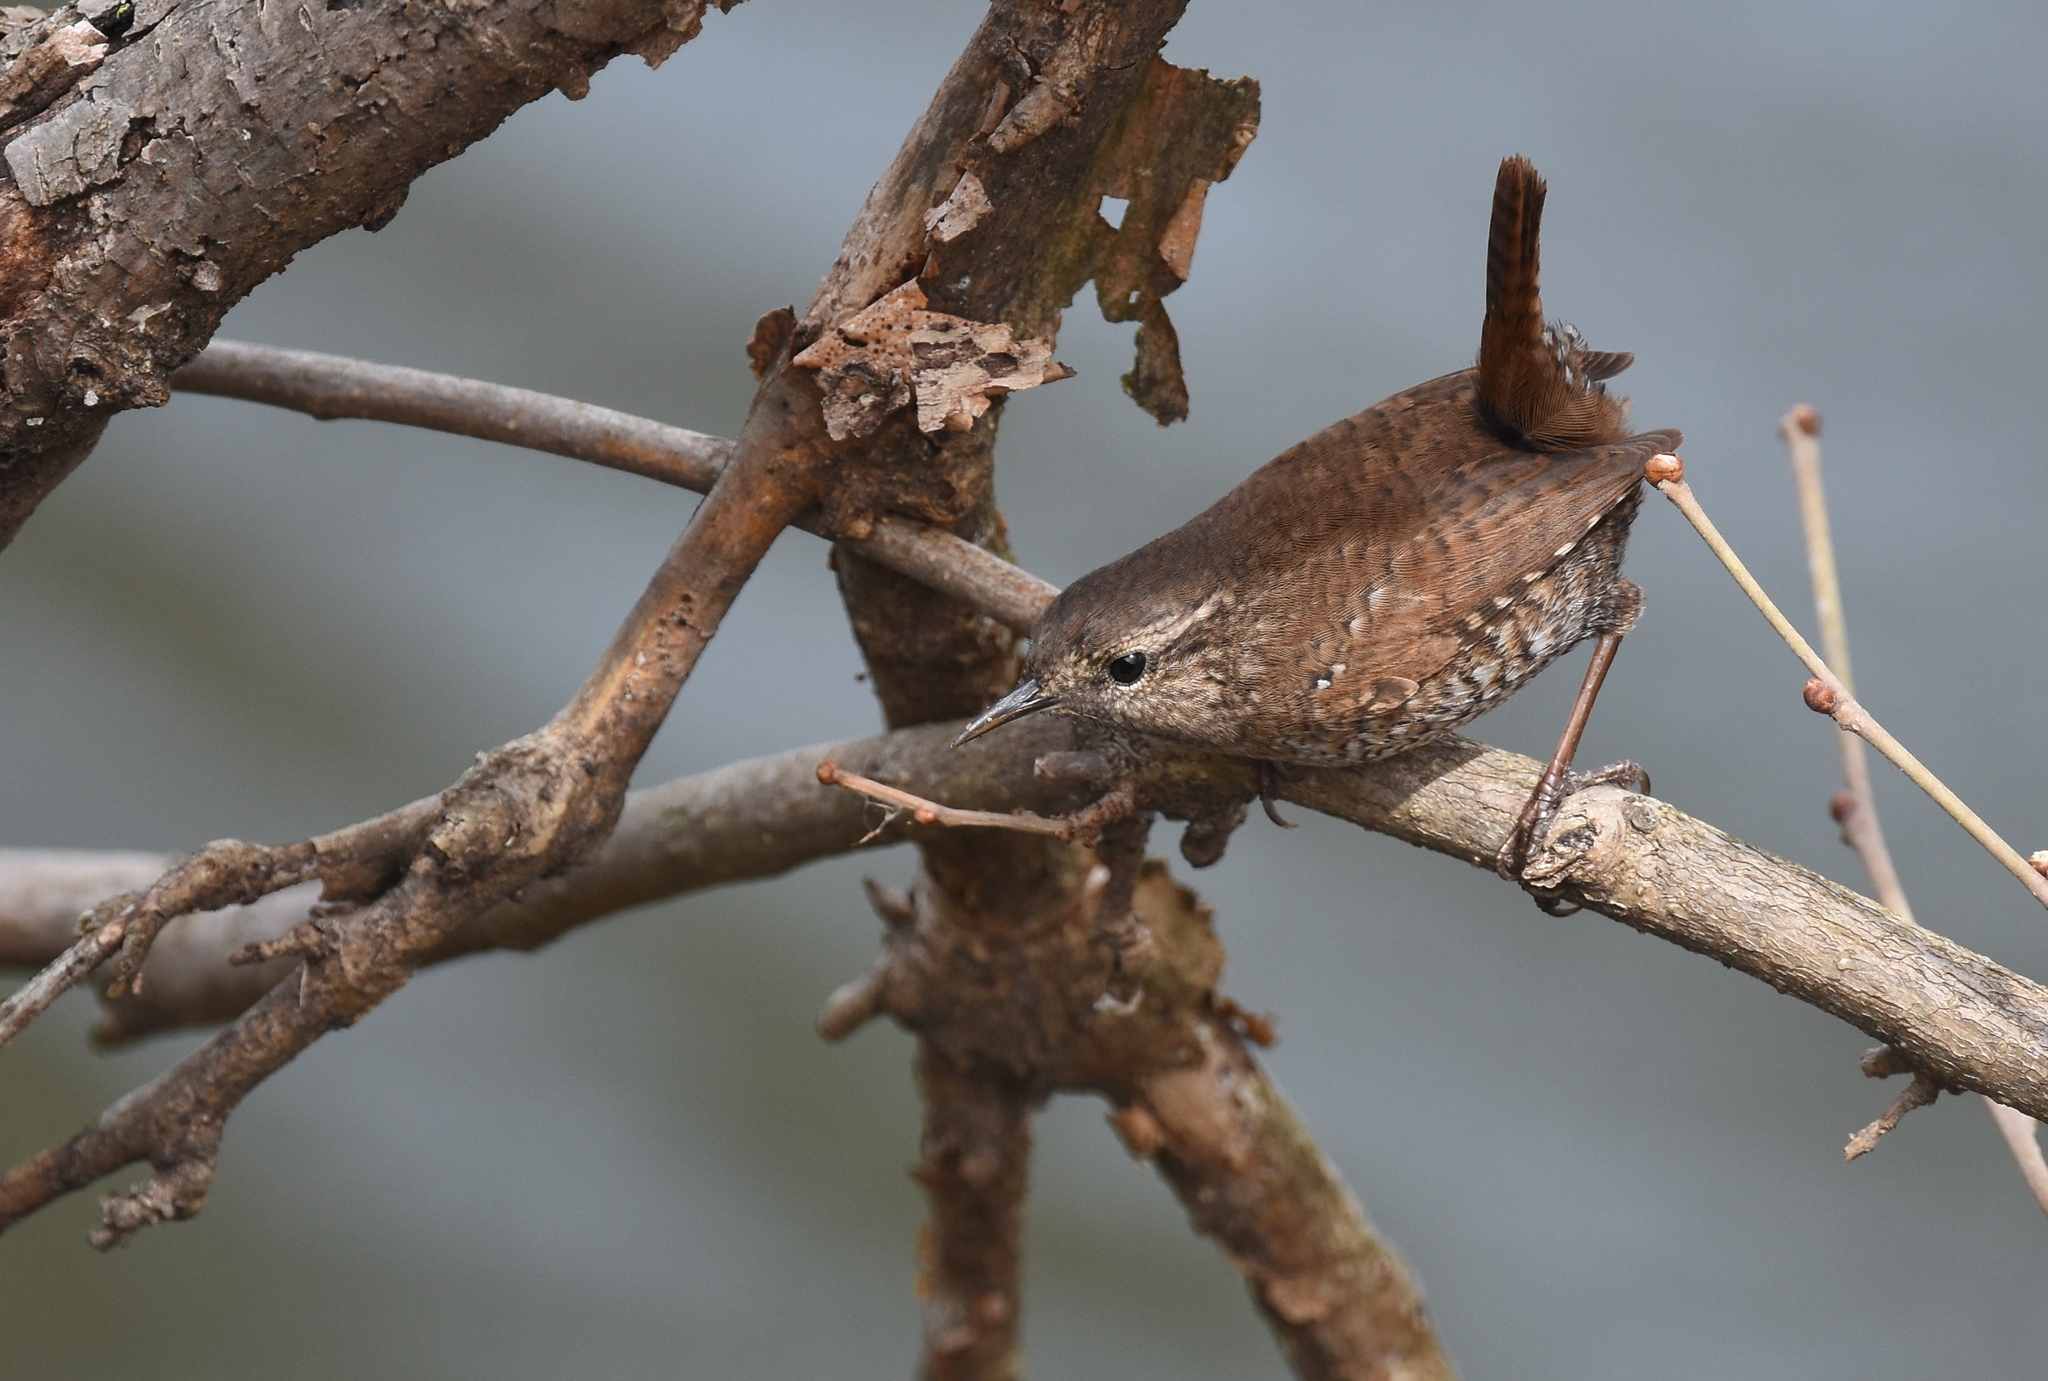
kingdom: Animalia
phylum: Chordata
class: Aves
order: Passeriformes
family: Troglodytidae
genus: Troglodytes
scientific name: Troglodytes hiemalis
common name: Winter wren
